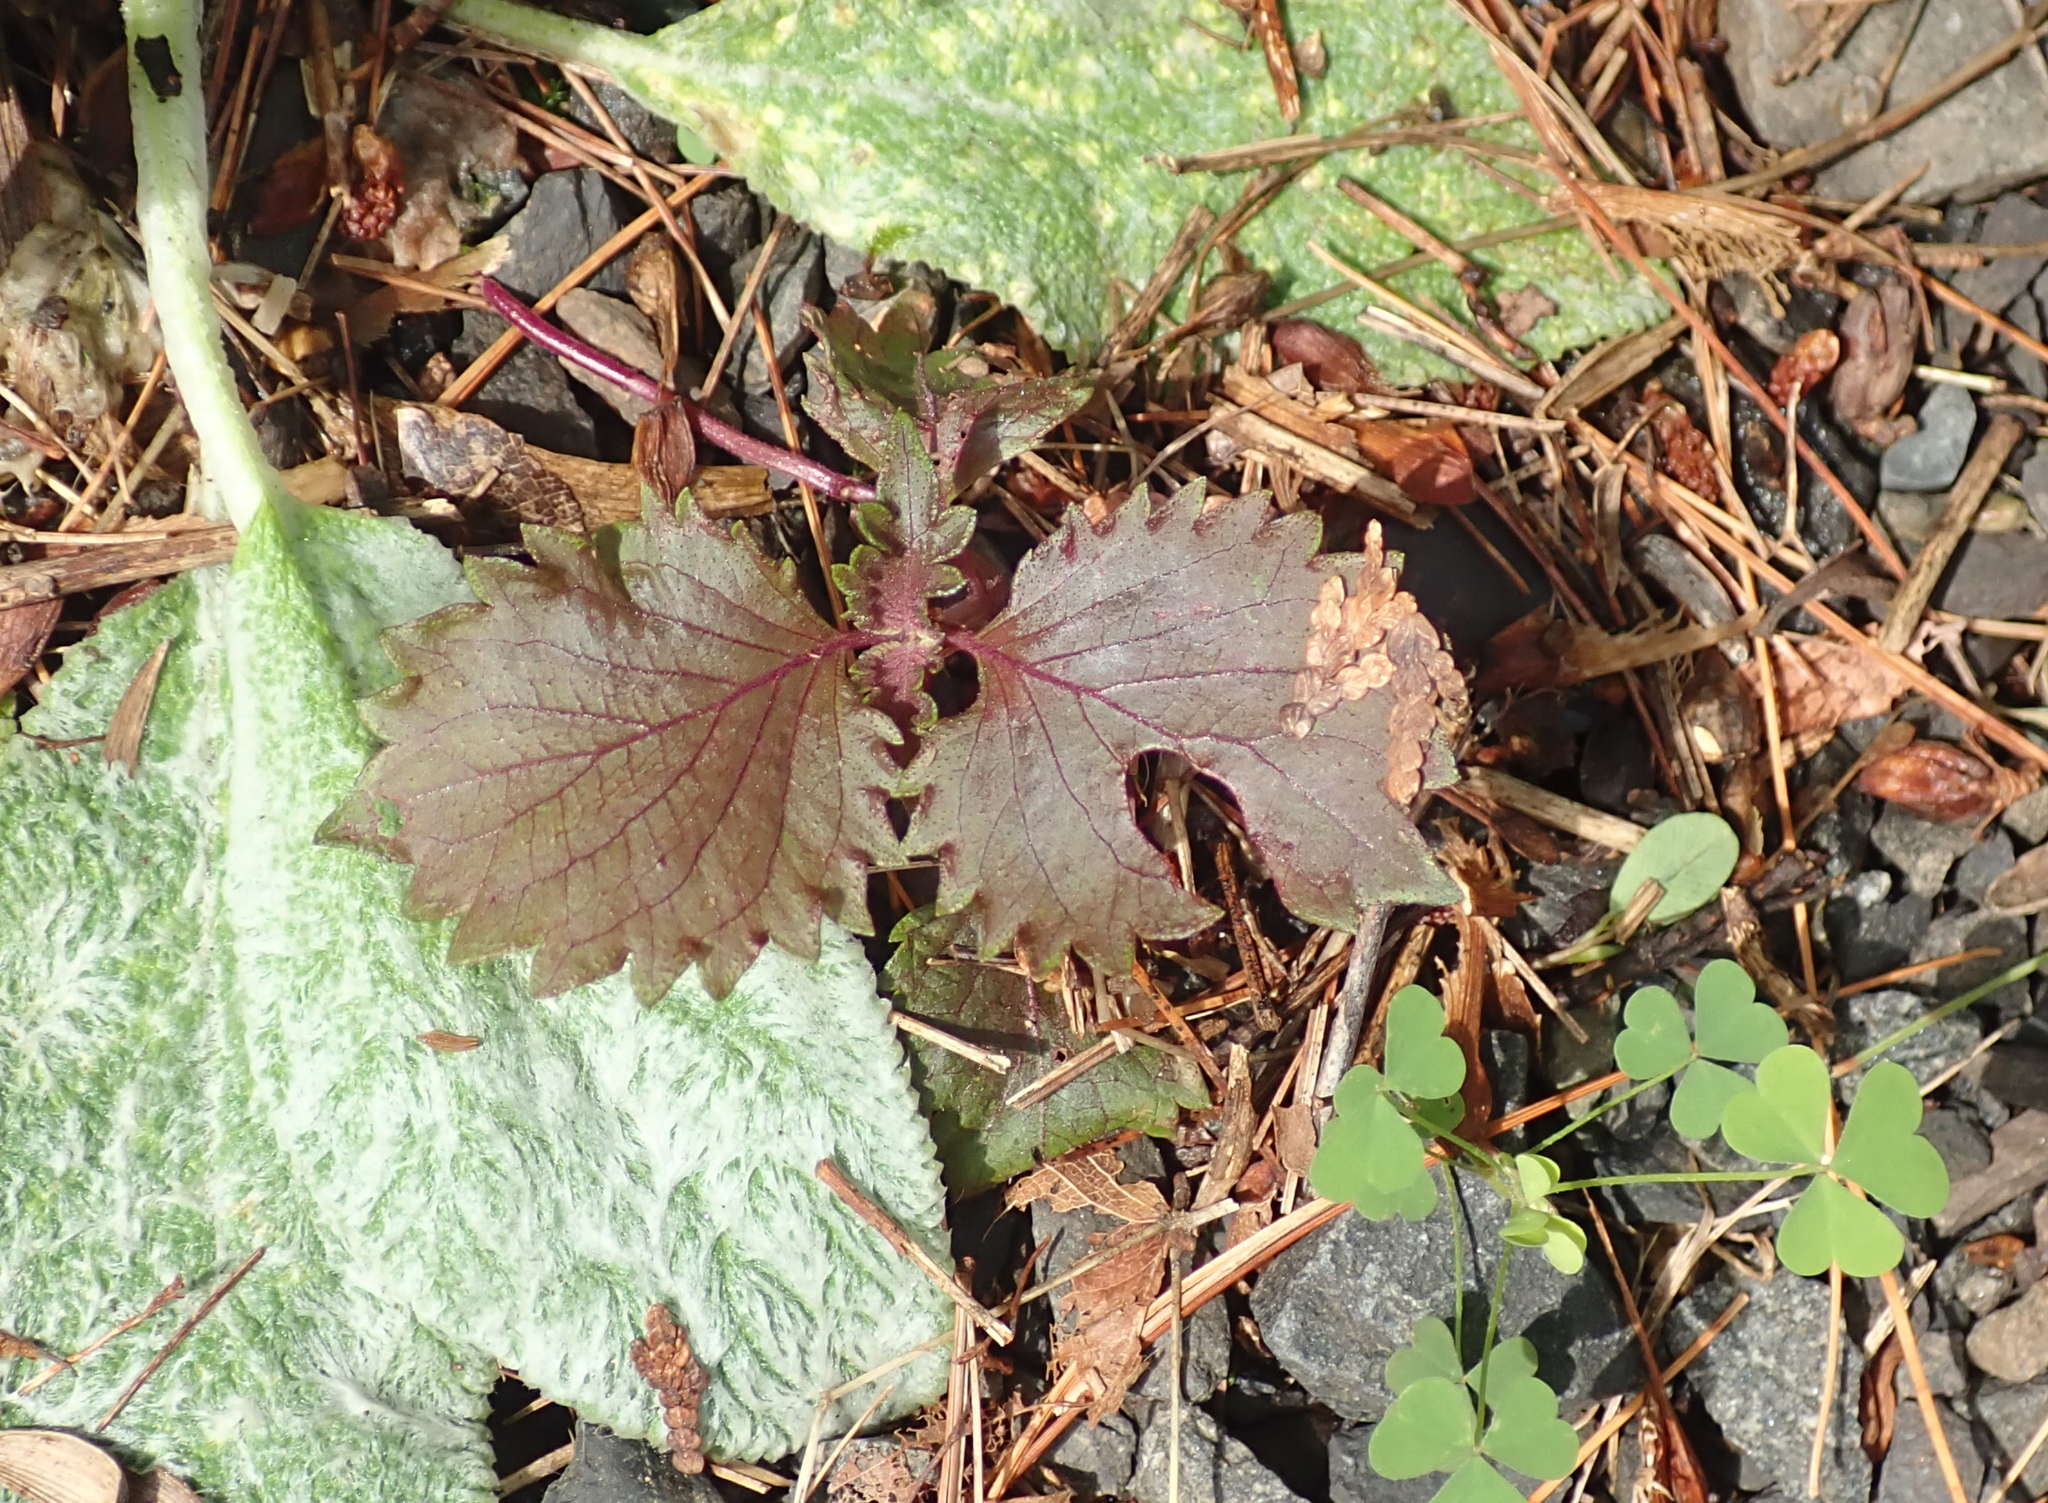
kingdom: Plantae
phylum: Tracheophyta
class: Magnoliopsida
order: Lamiales
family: Lamiaceae
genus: Perilla
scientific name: Perilla frutescens
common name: Perilla
